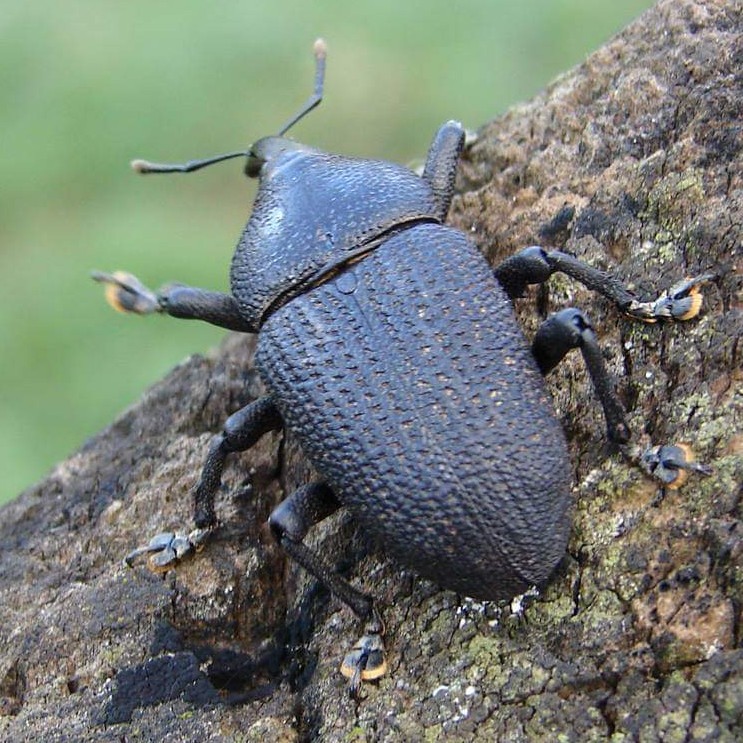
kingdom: Animalia
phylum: Arthropoda
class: Insecta
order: Coleoptera
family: Curculionidae
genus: Homalinotus
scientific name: Homalinotus coriaceus
